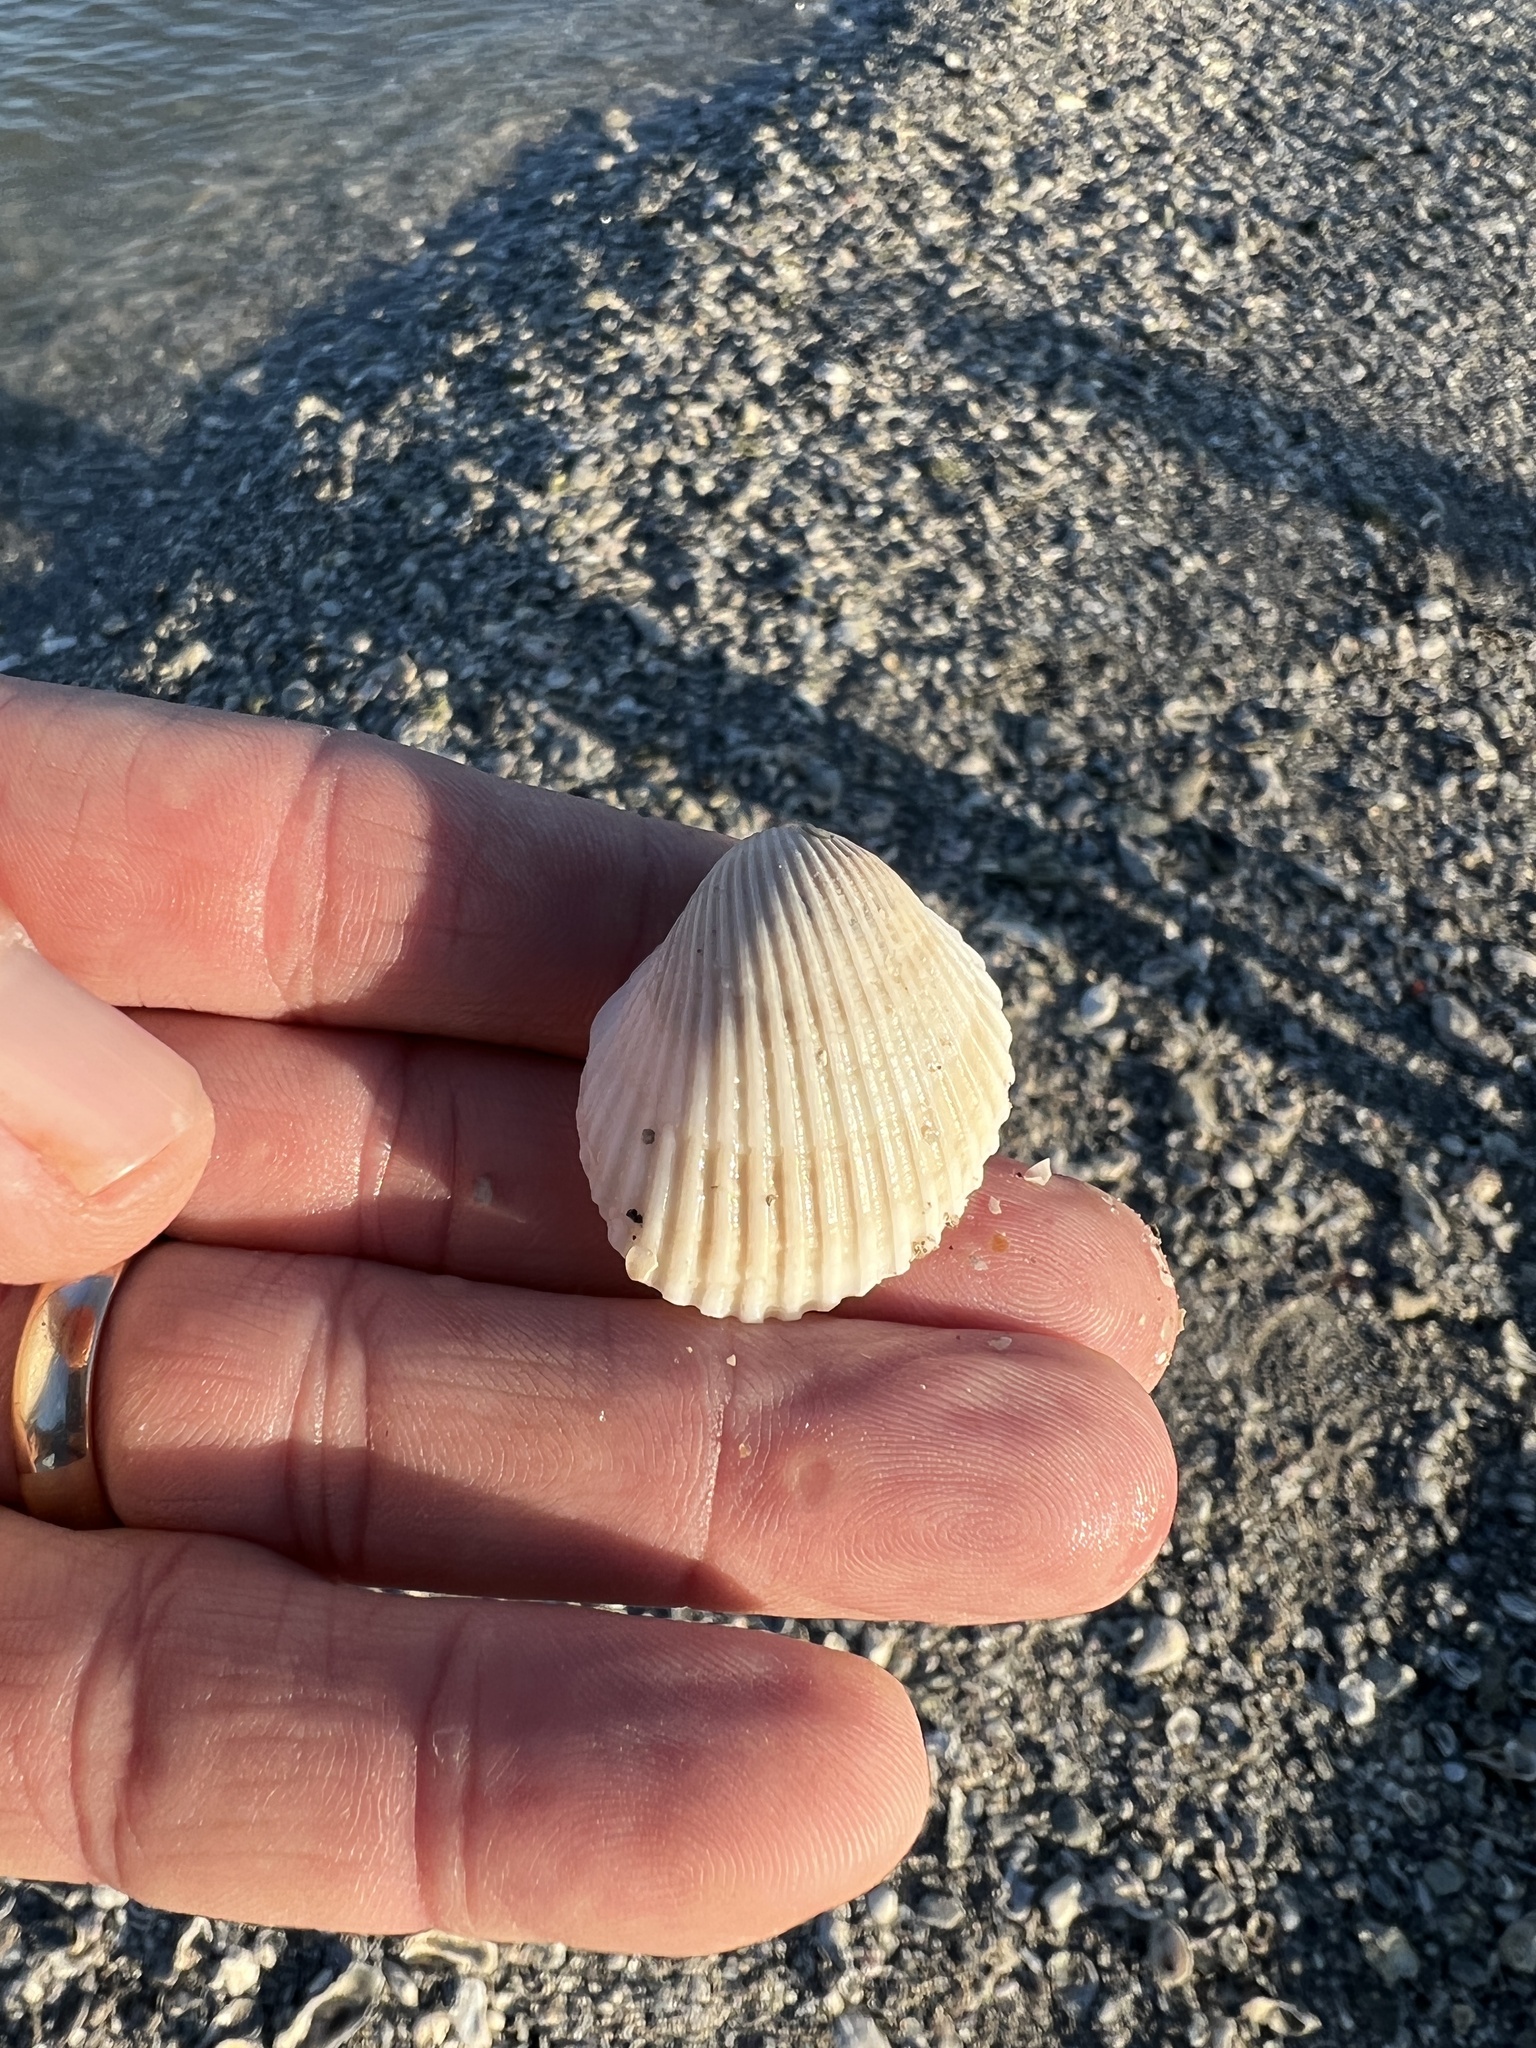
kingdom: Animalia
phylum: Mollusca
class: Bivalvia
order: Arcida
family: Arcidae
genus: Lunarca
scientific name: Lunarca ovalis
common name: Blood ark
